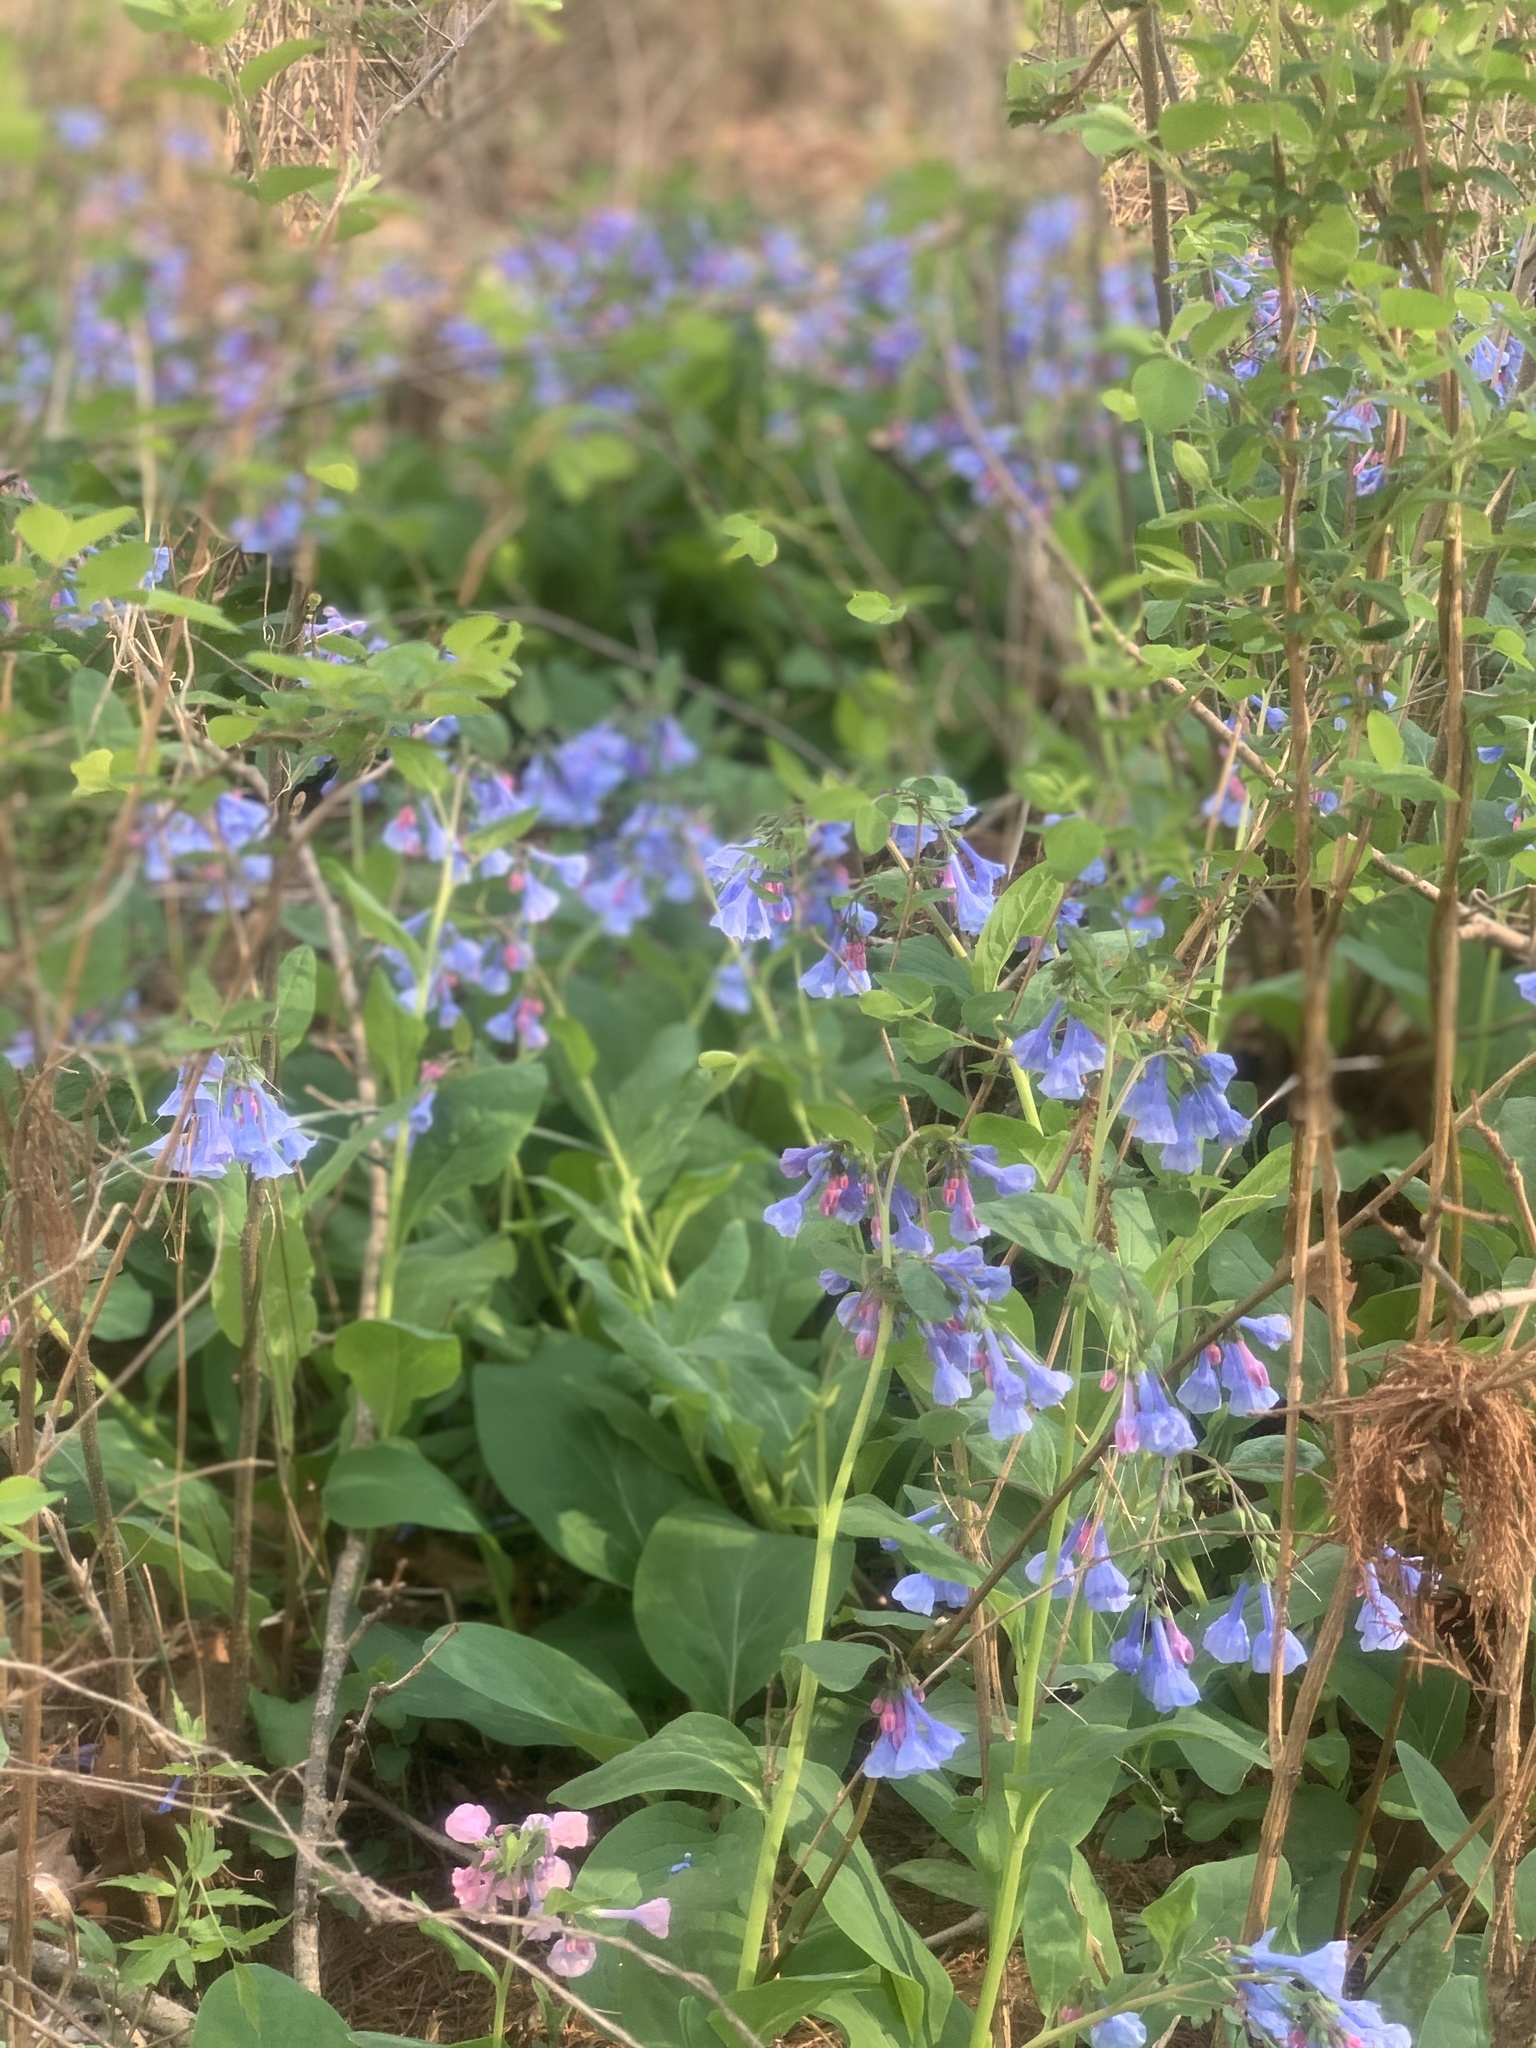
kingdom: Plantae
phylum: Tracheophyta
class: Magnoliopsida
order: Boraginales
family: Boraginaceae
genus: Mertensia
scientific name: Mertensia virginica
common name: Virginia bluebells
